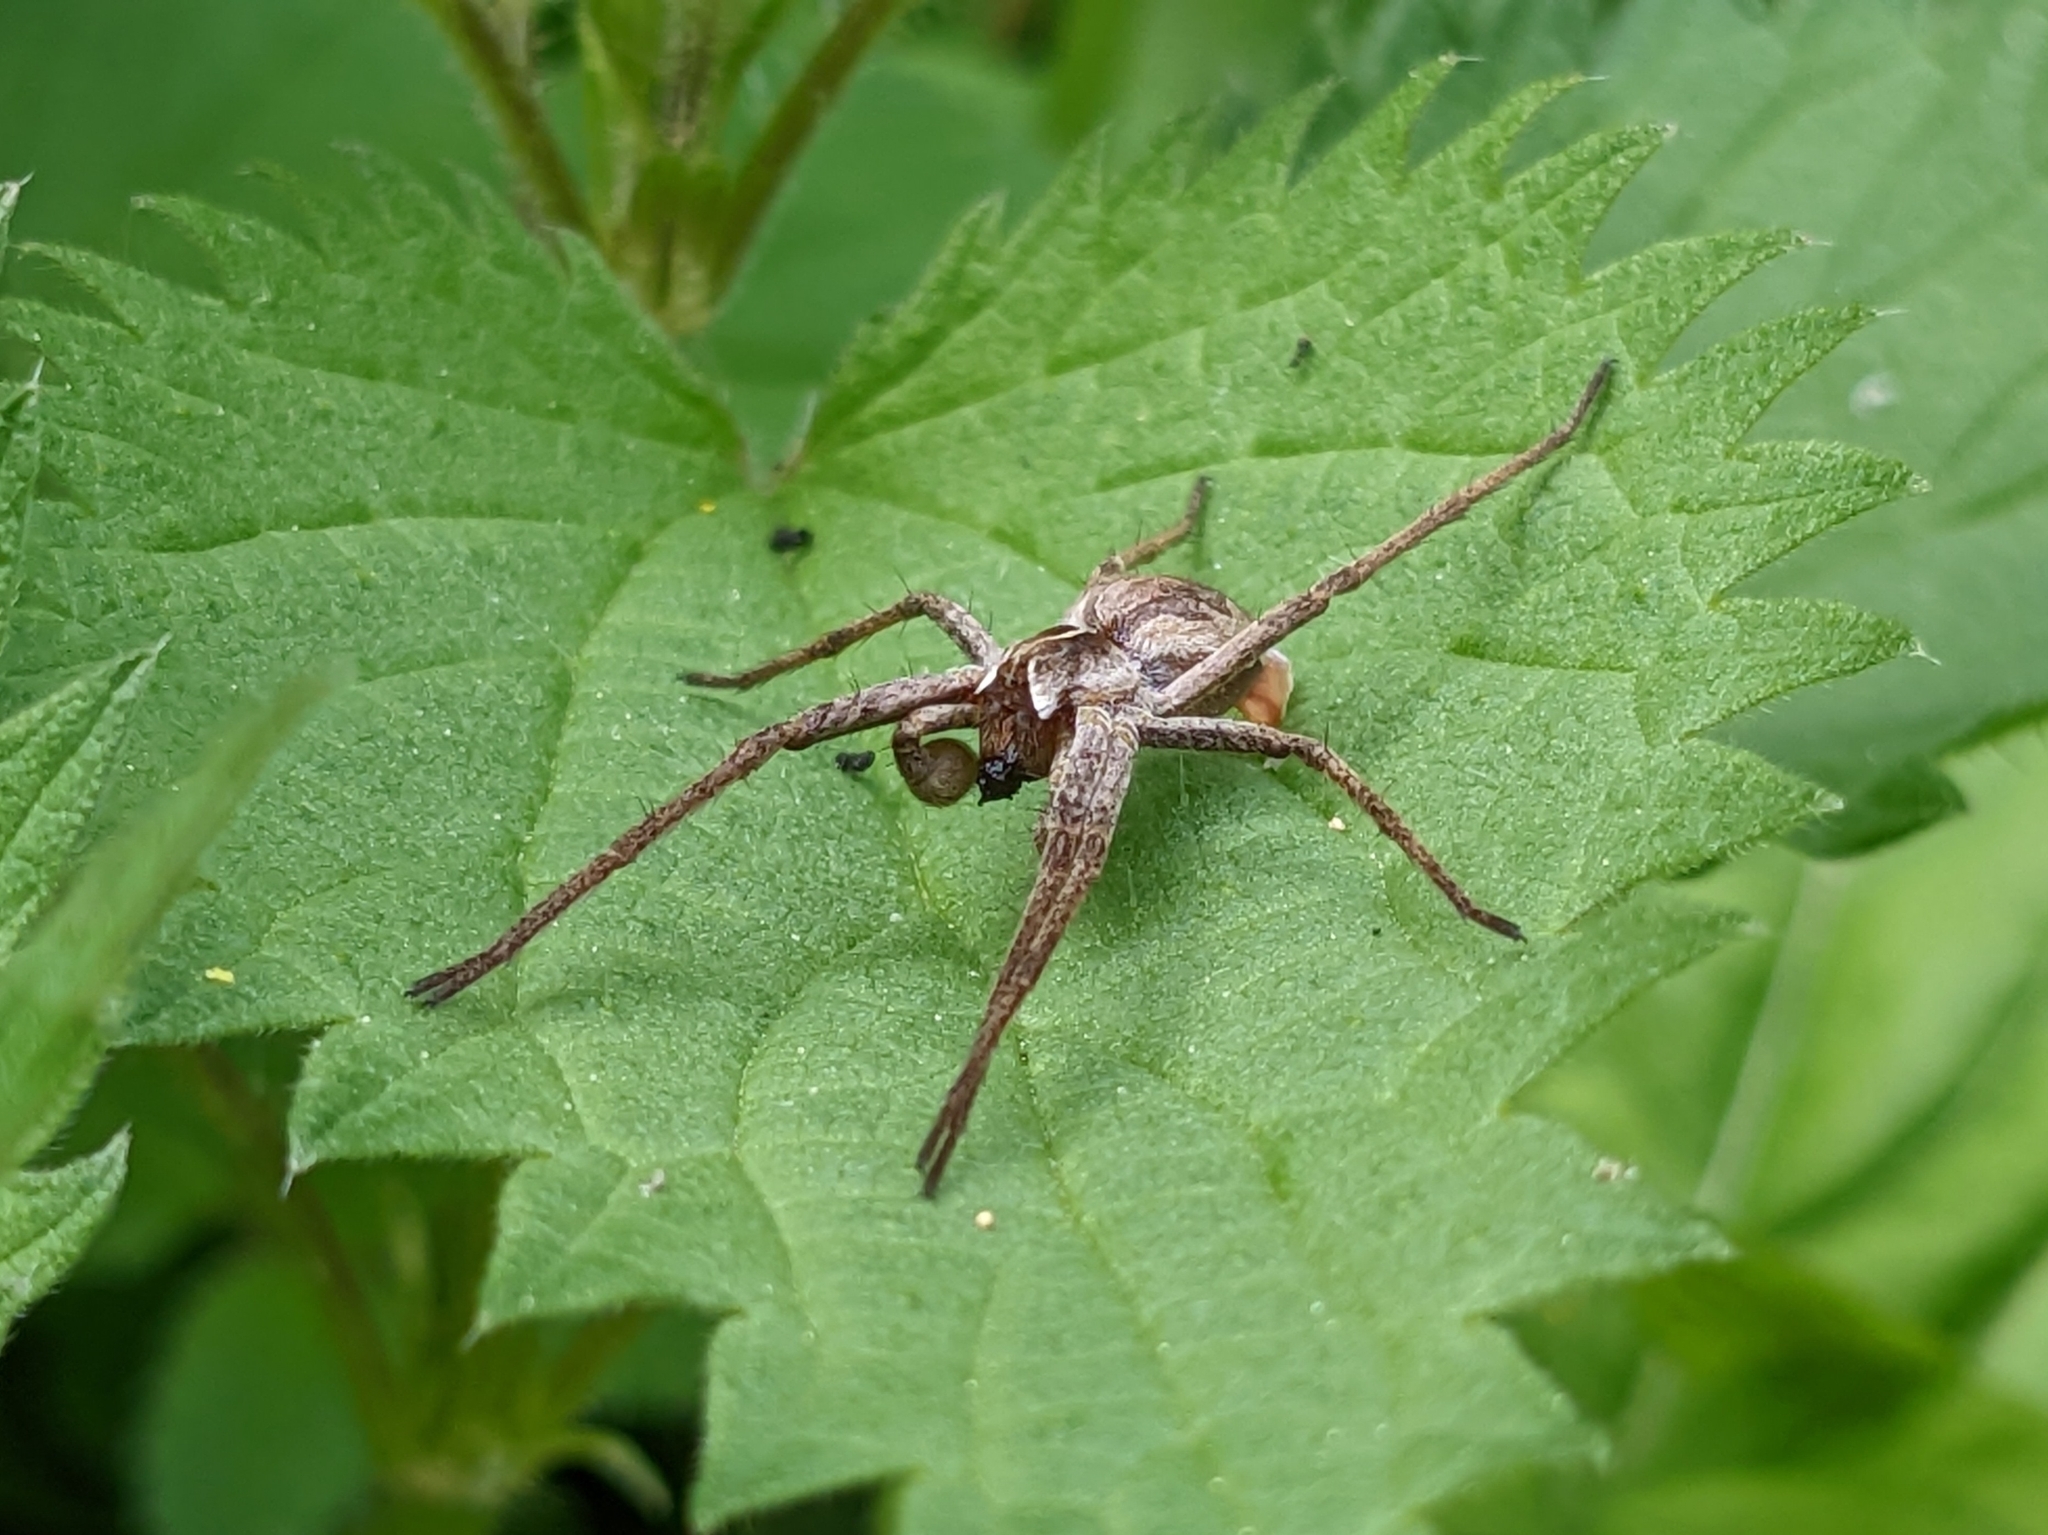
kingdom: Animalia
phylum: Arthropoda
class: Arachnida
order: Araneae
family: Pisauridae
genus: Pisaura
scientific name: Pisaura mirabilis
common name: Tent spider
